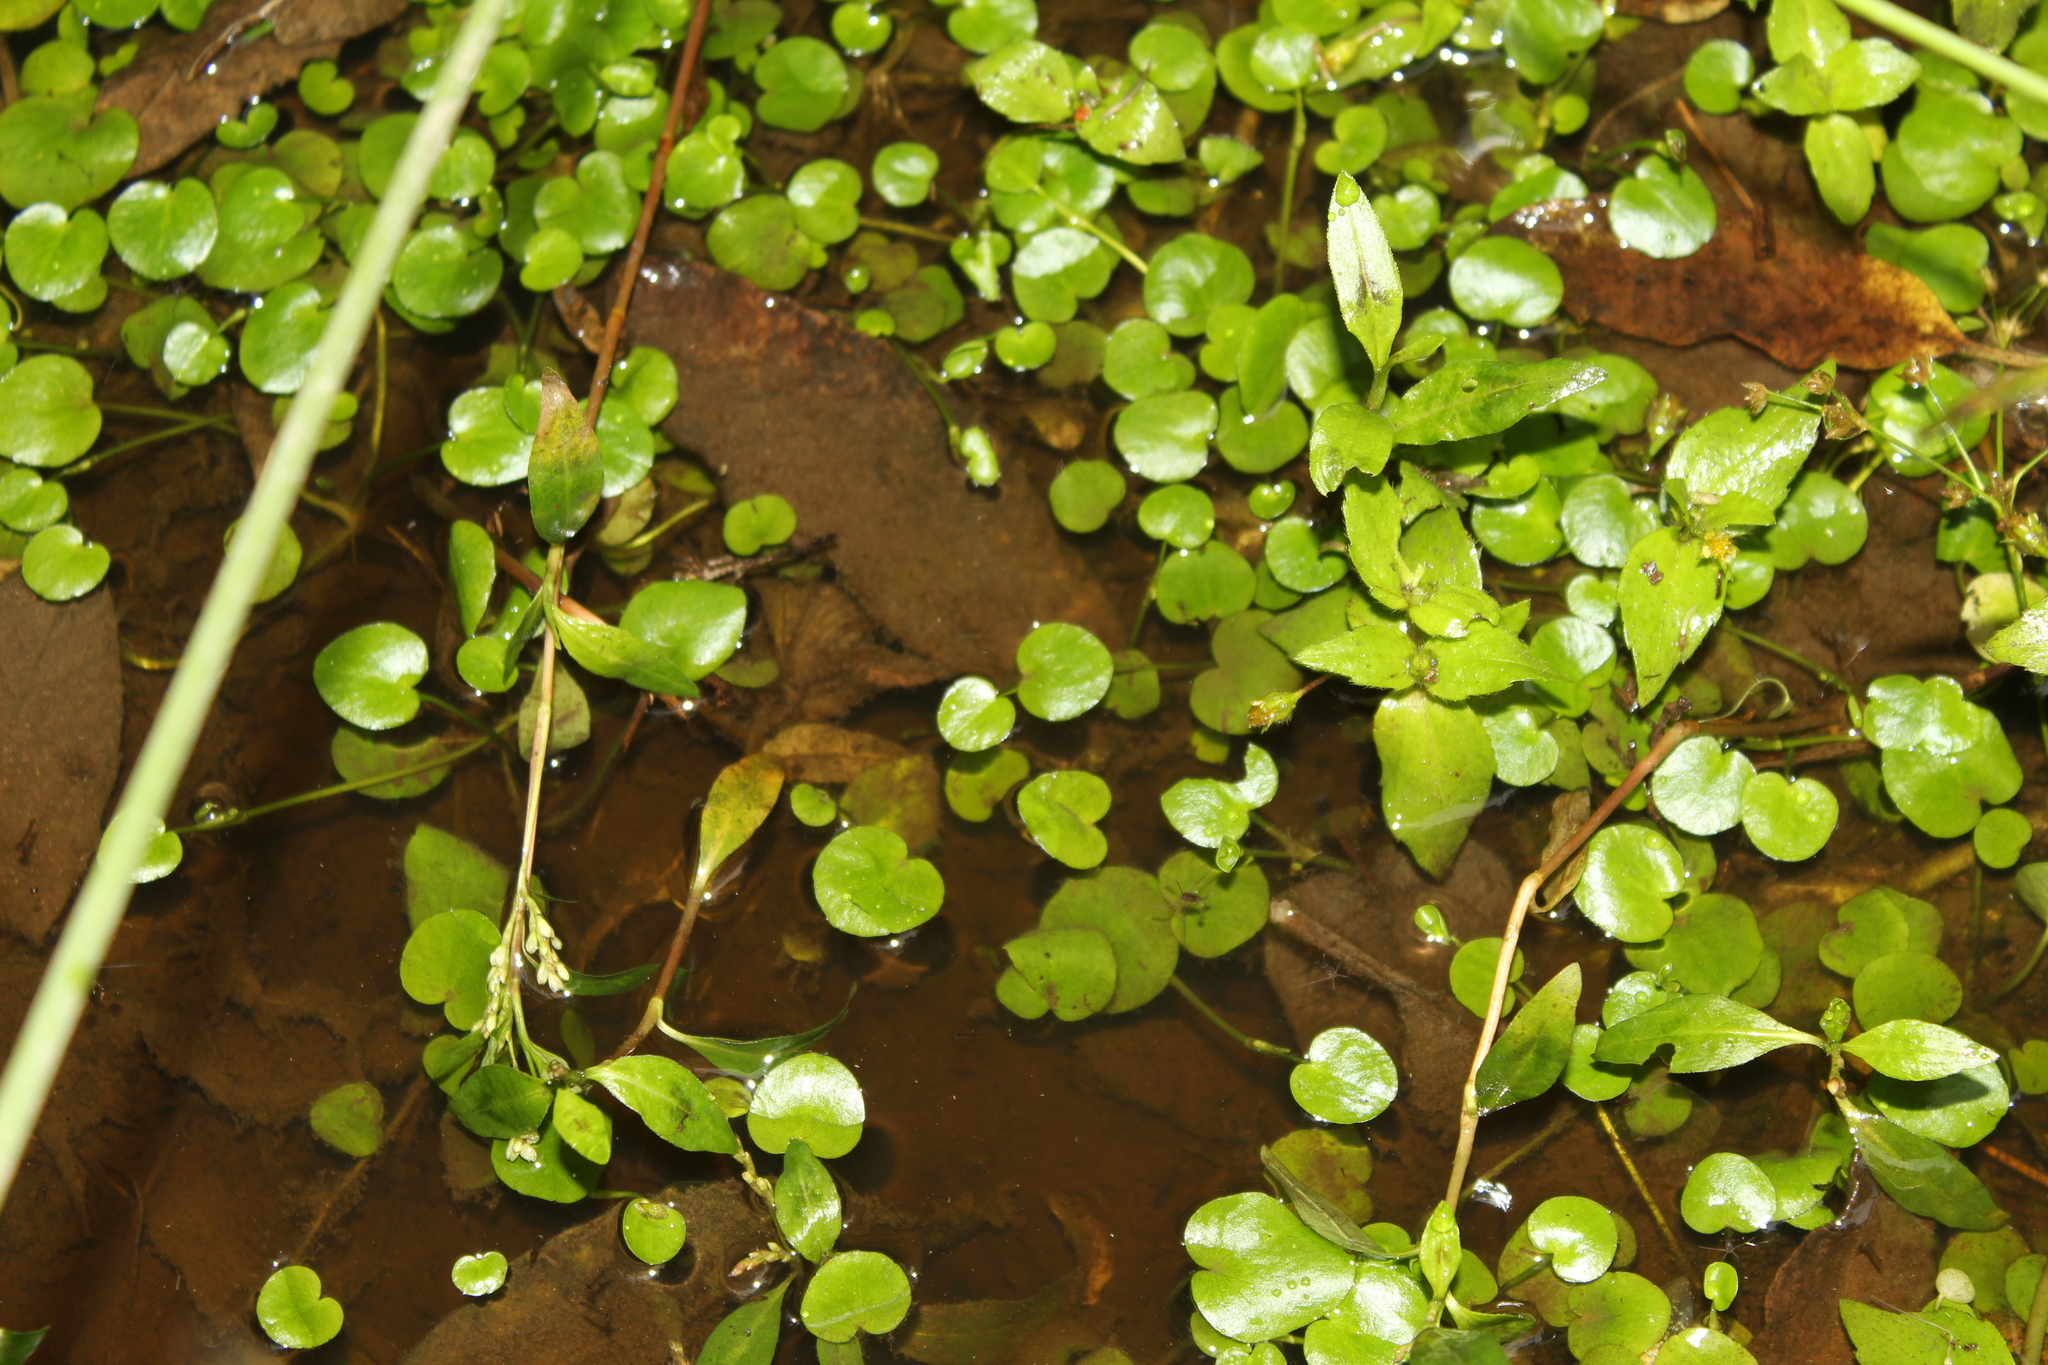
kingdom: Plantae
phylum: Tracheophyta
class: Magnoliopsida
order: Ranunculales
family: Ranunculaceae
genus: Ranunculus
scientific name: Ranunculus flagelliformis
